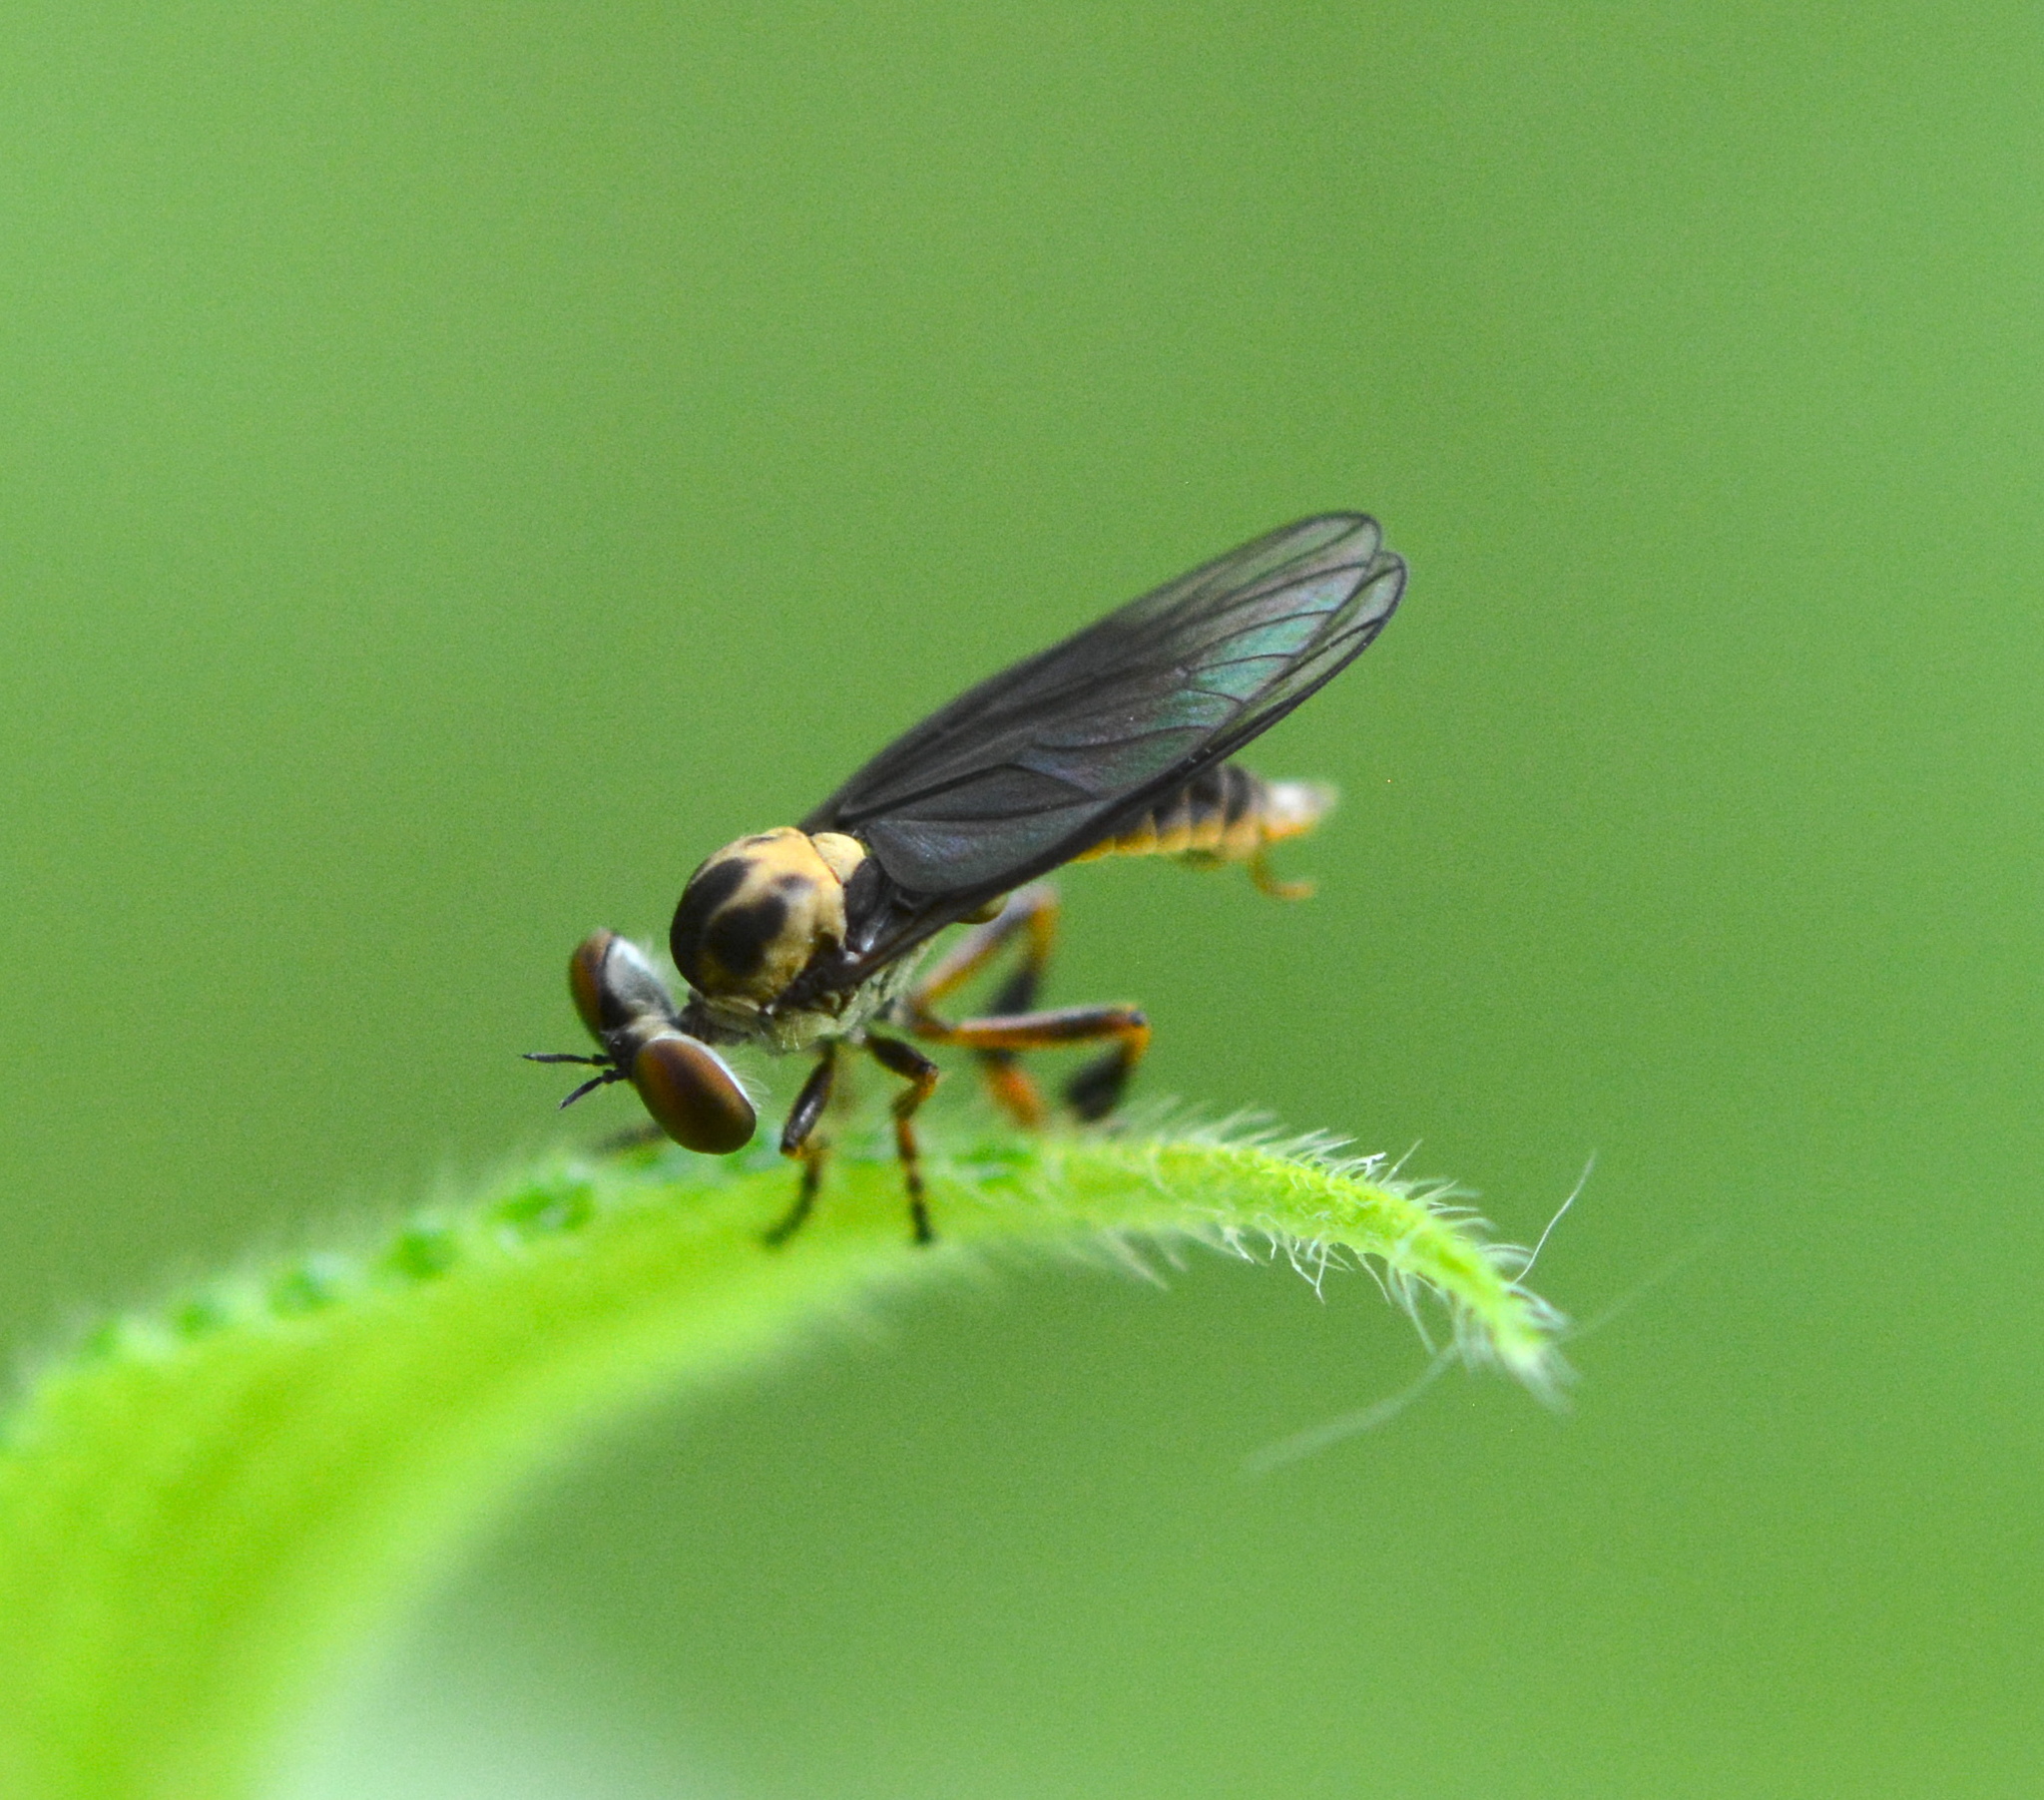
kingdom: Animalia
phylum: Arthropoda
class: Insecta
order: Diptera
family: Asilidae
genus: Holcocephala
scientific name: Holcocephala
